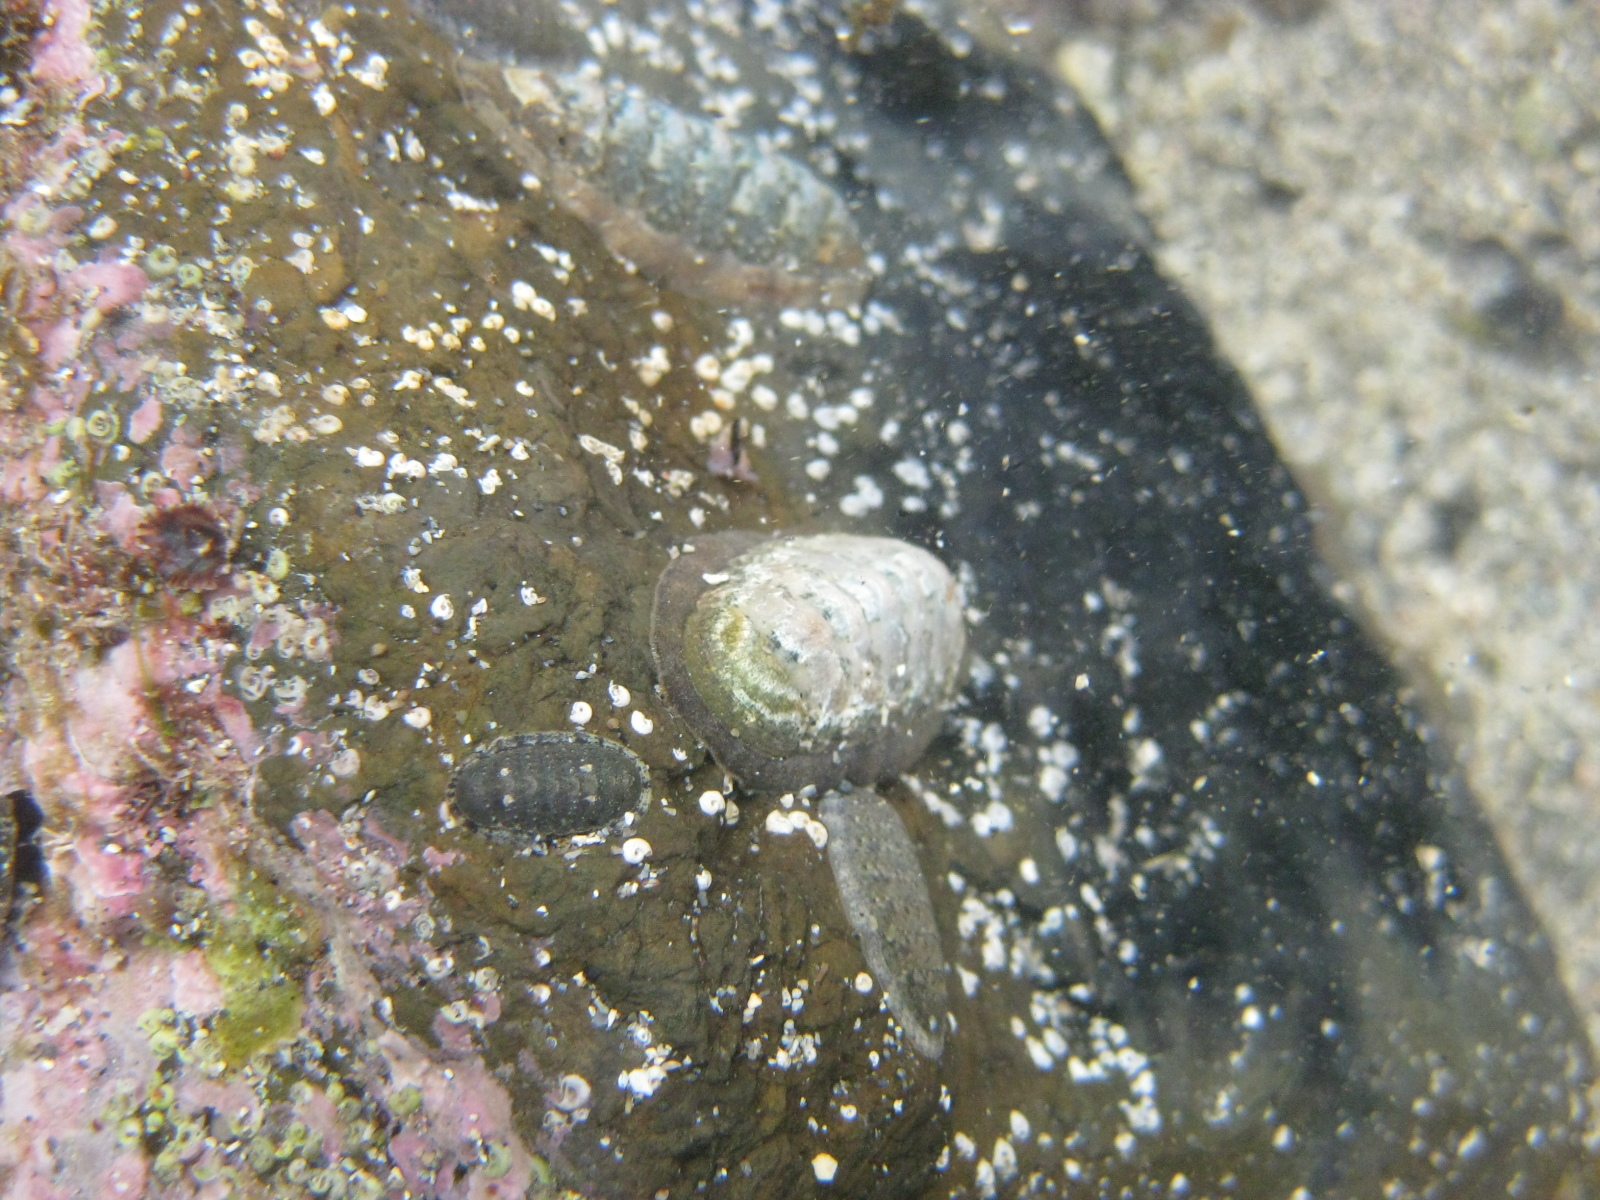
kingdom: Animalia
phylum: Mollusca
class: Polyplacophora
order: Chitonida
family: Ischnochitonidae
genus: Ischnochiton
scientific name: Ischnochiton maorianus
